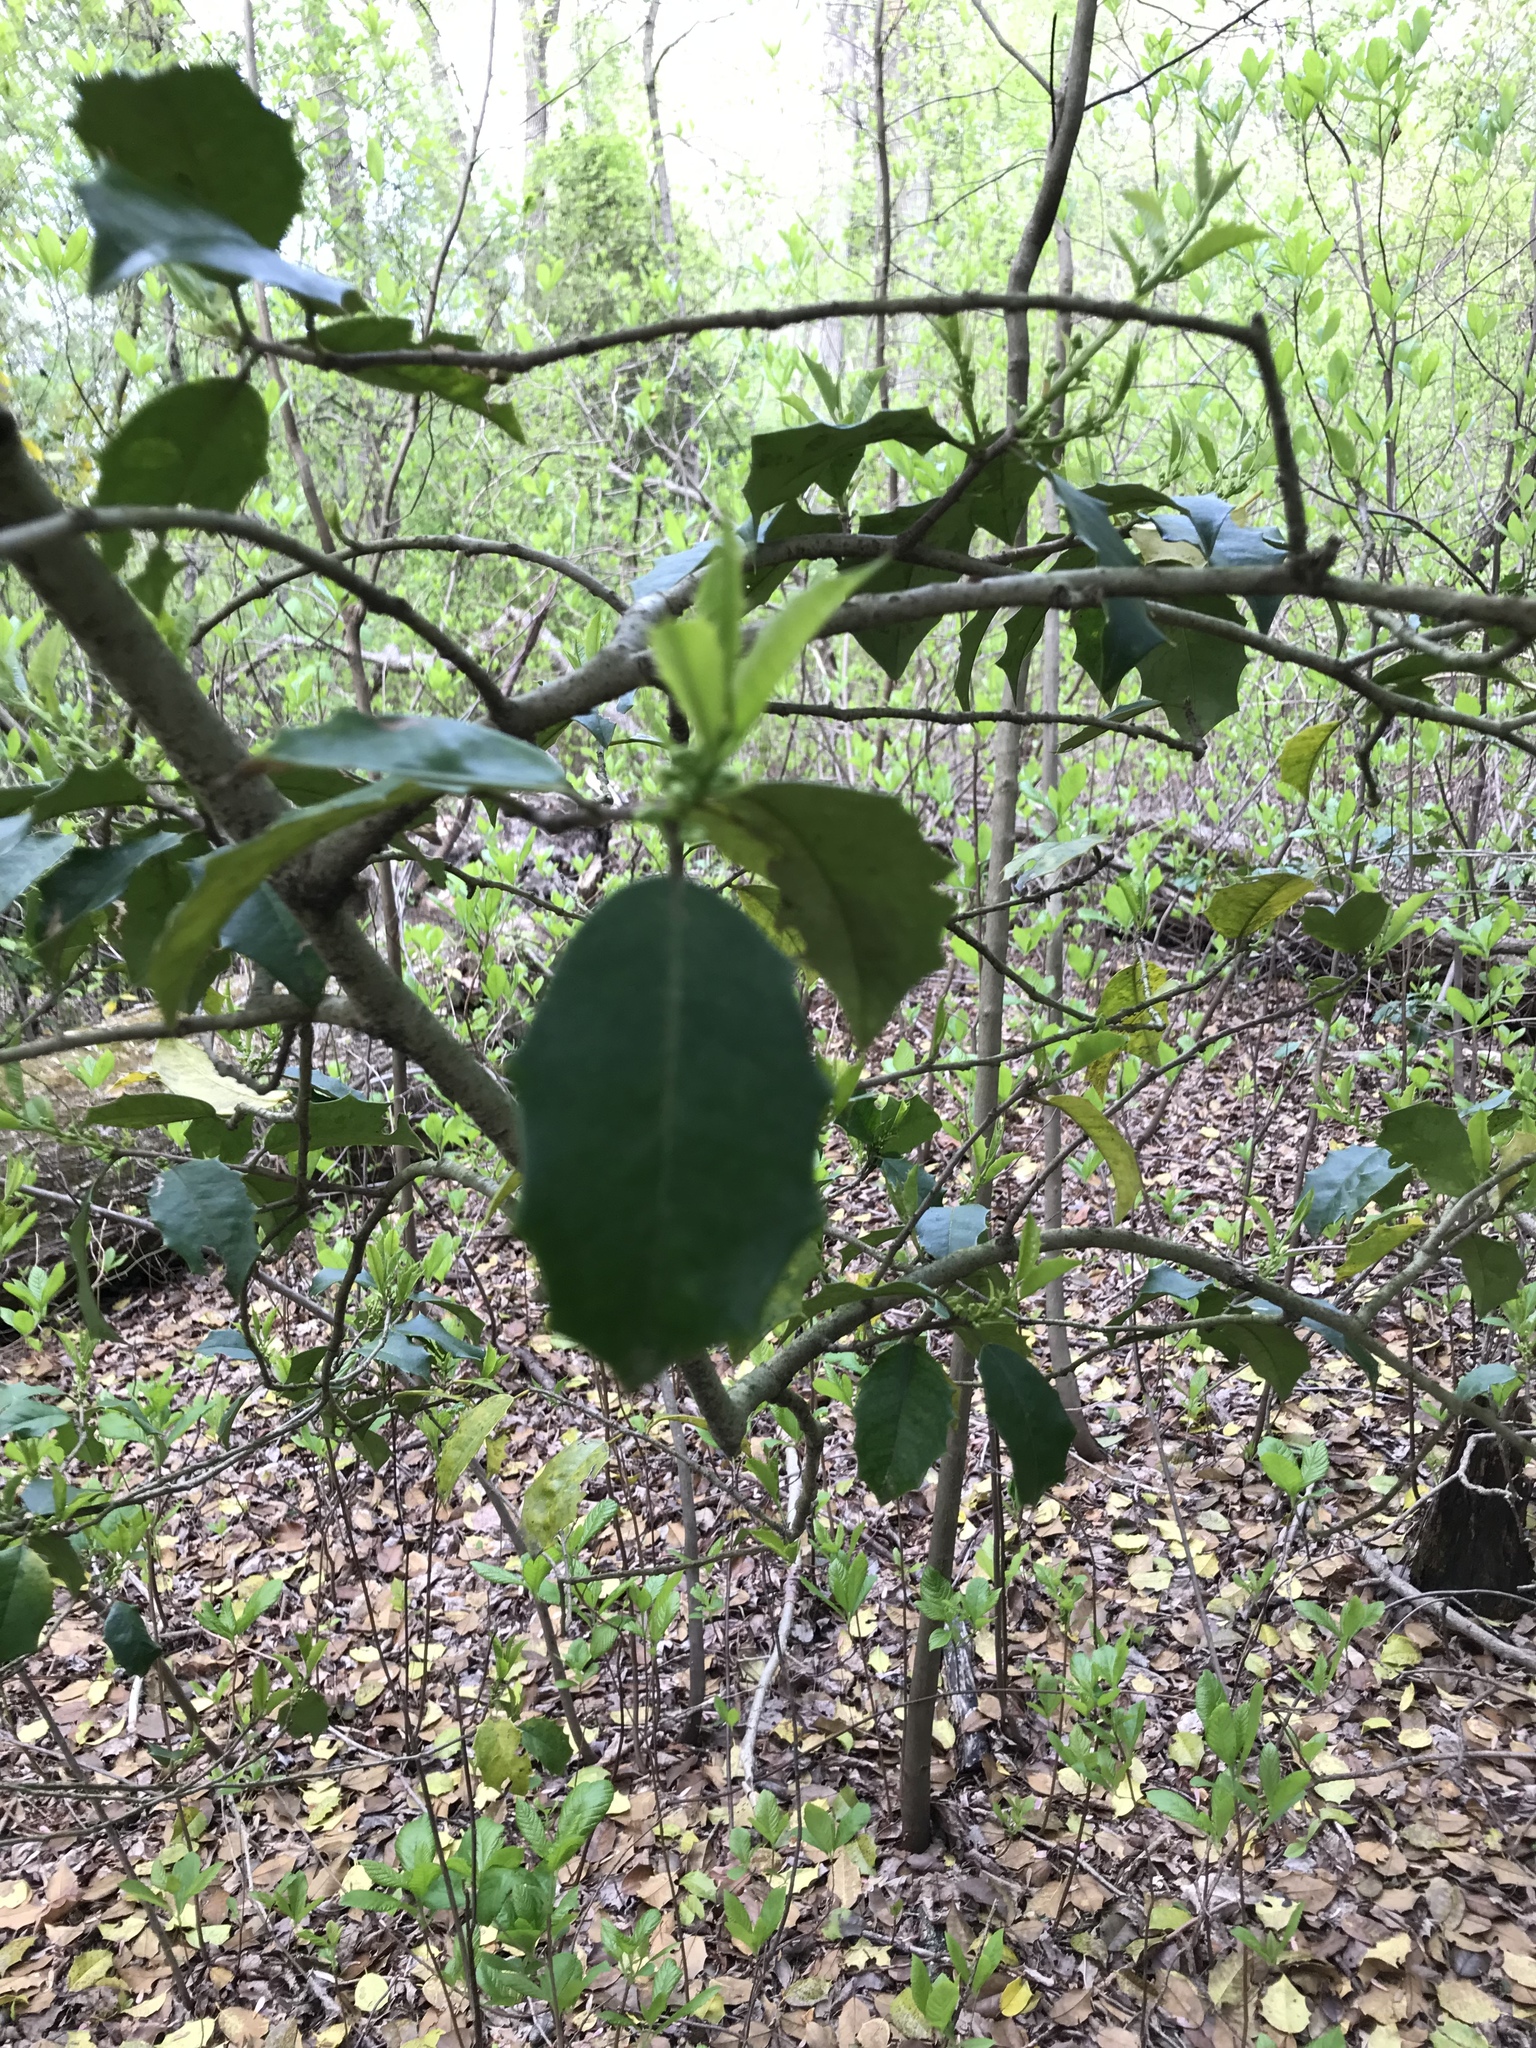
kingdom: Plantae
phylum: Tracheophyta
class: Magnoliopsida
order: Aquifoliales
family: Aquifoliaceae
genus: Ilex
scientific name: Ilex opaca
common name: American holly
